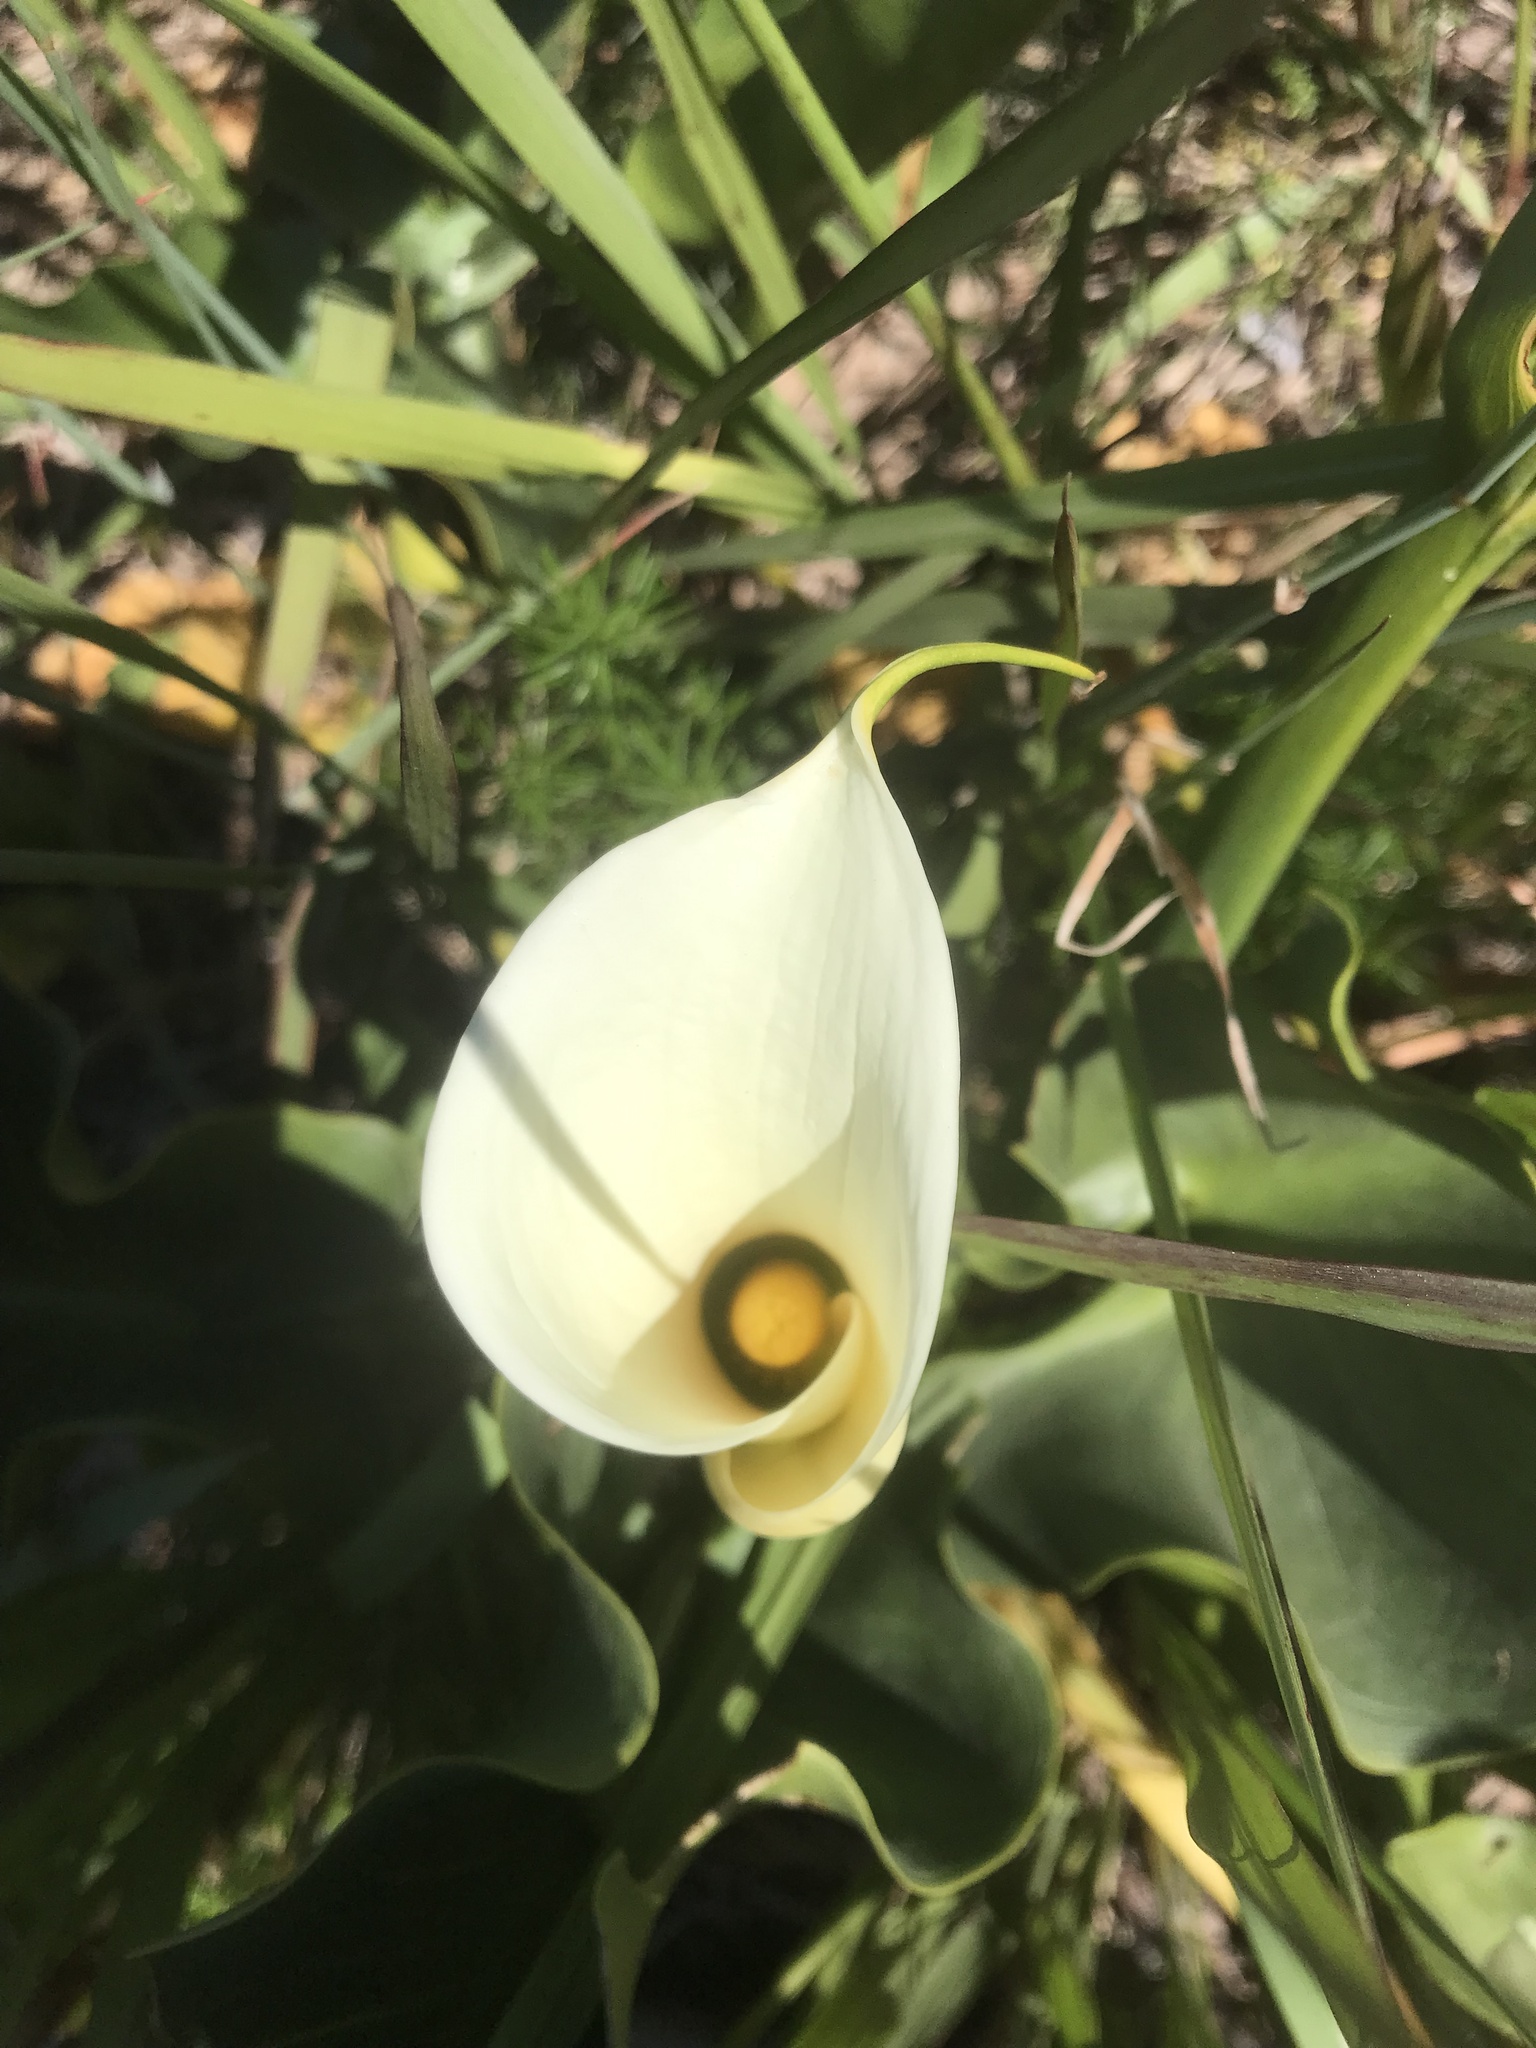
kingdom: Plantae
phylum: Tracheophyta
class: Liliopsida
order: Alismatales
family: Araceae
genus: Zantedeschia
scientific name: Zantedeschia aethiopica
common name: Altar-lily
